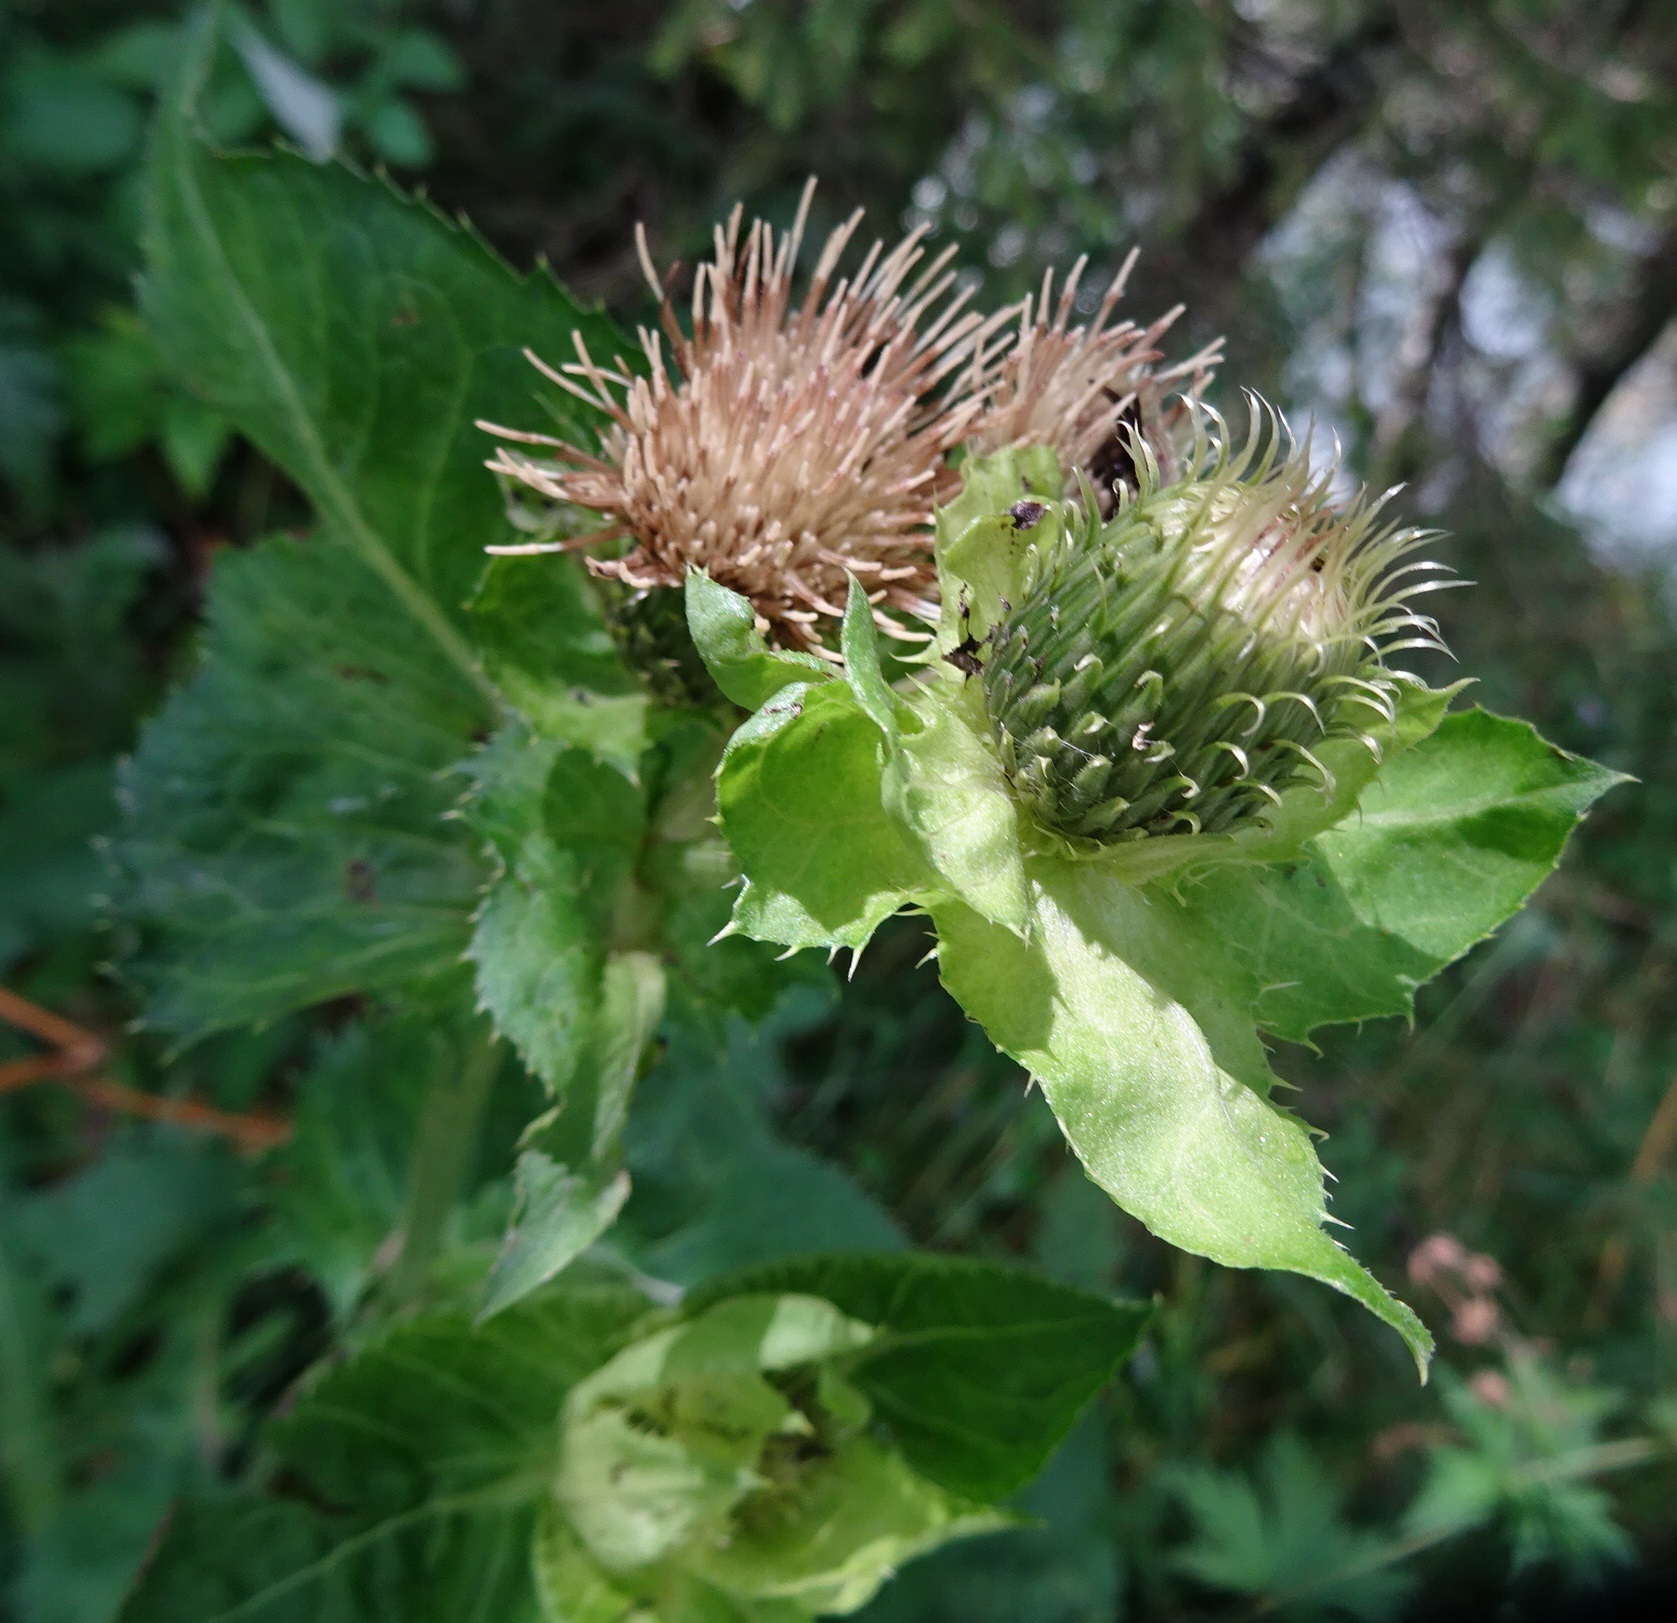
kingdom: Plantae
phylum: Tracheophyta
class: Magnoliopsida
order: Asterales
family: Asteraceae
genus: Cirsium
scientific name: Cirsium oleraceum
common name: Cabbage thistle
